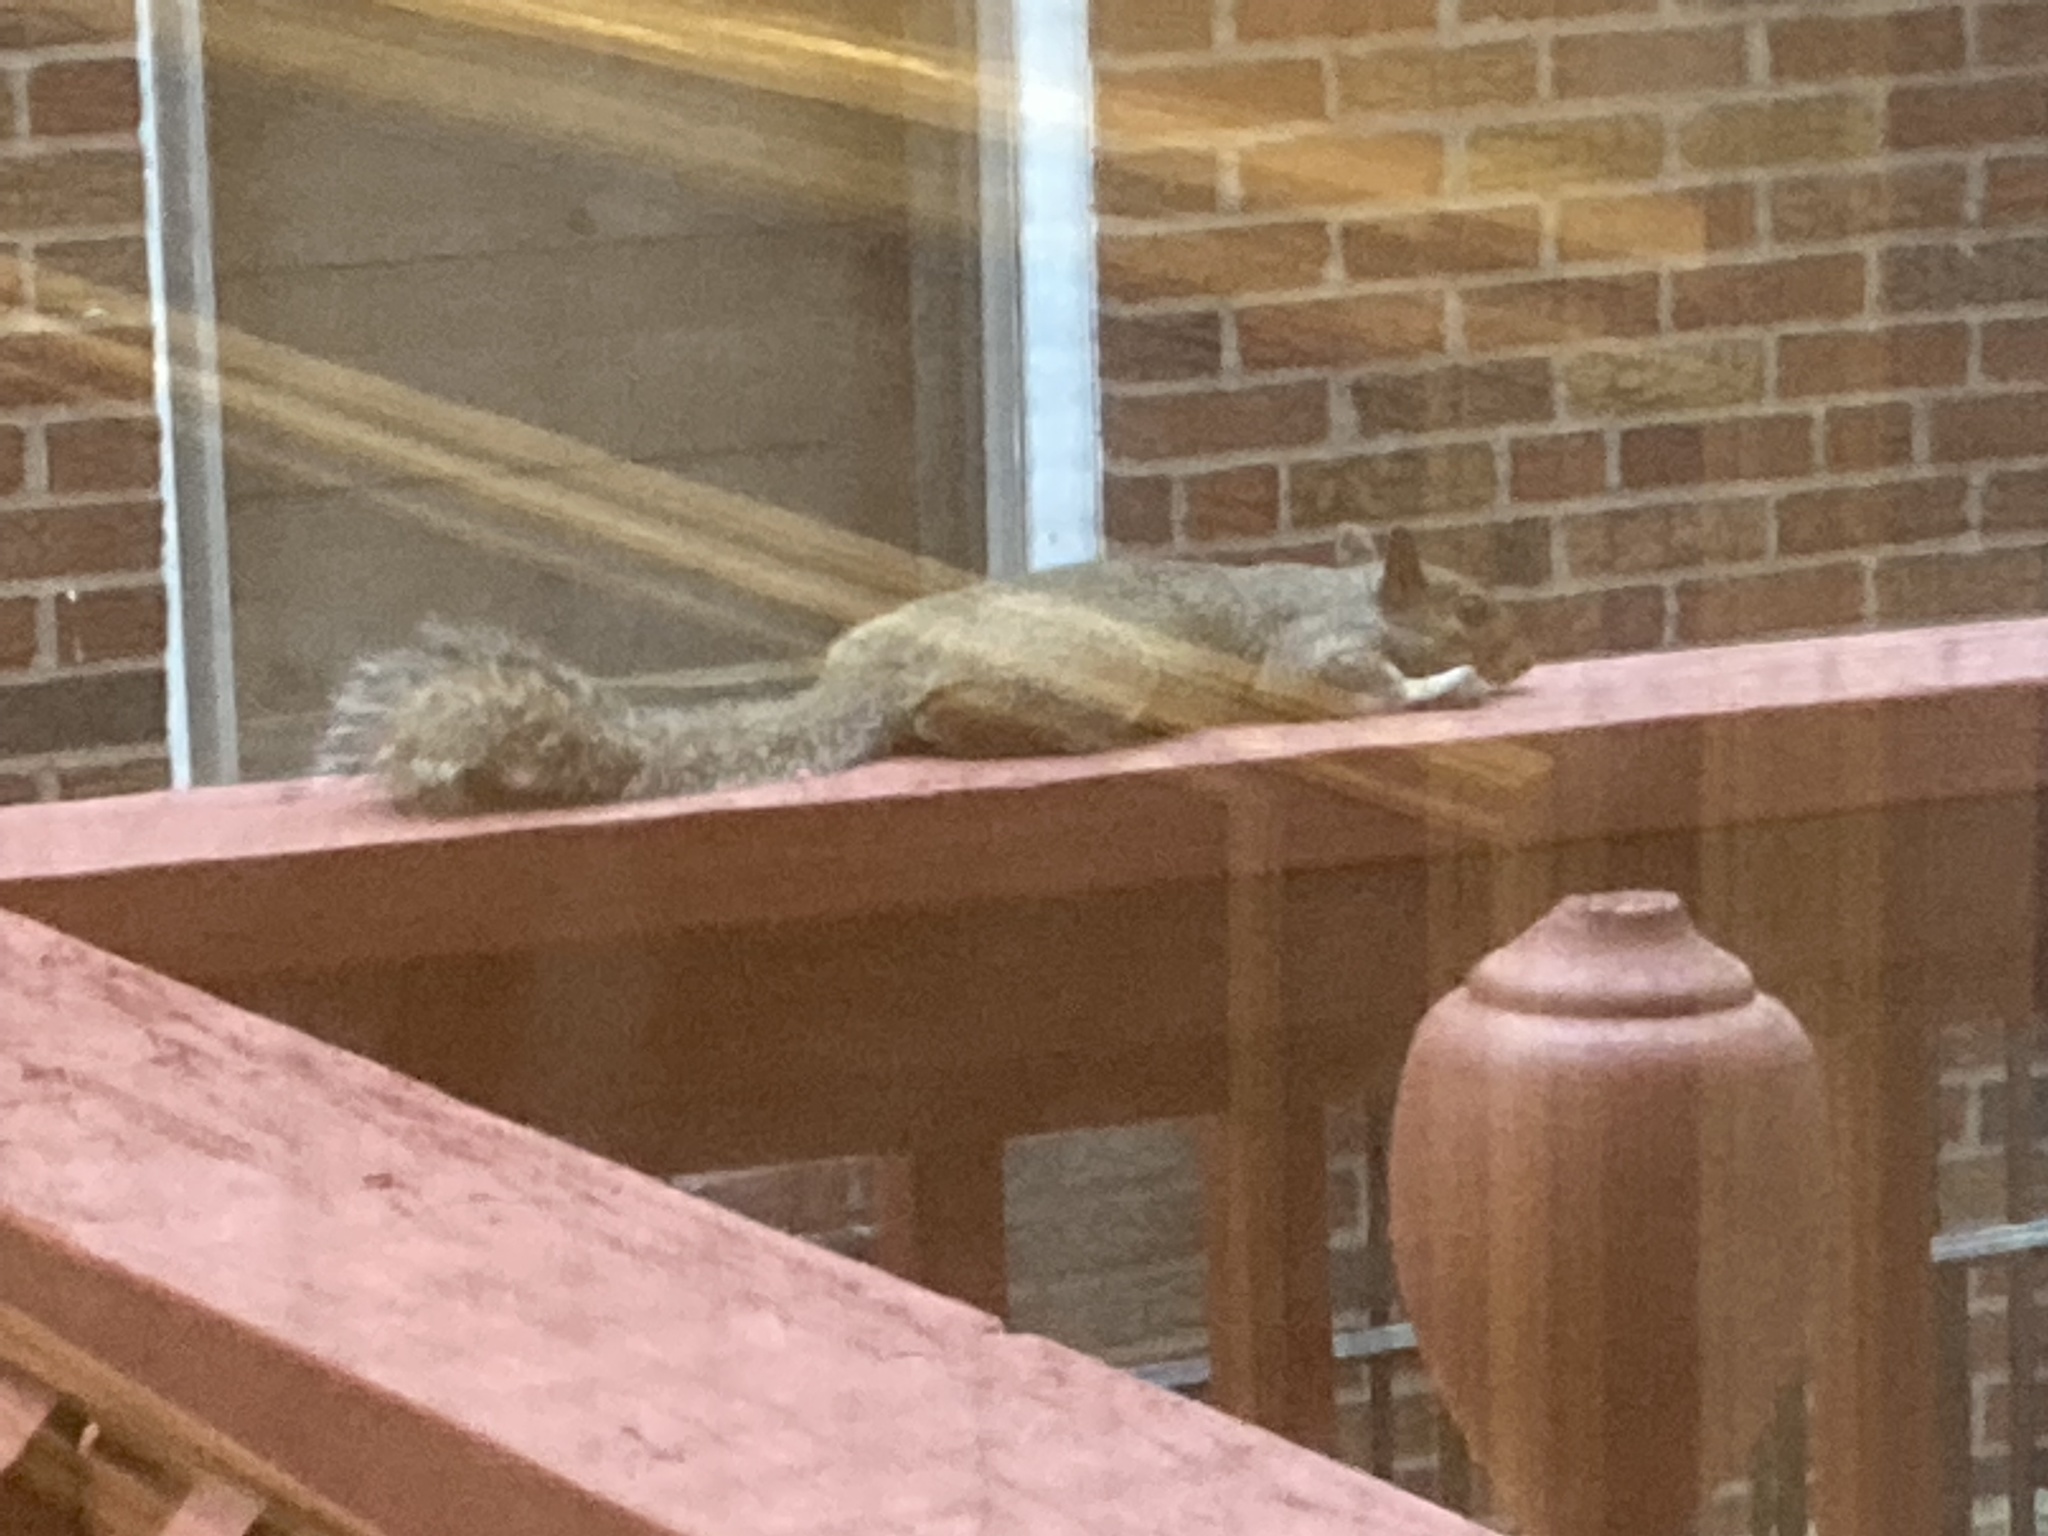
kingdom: Animalia
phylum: Chordata
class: Mammalia
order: Rodentia
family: Sciuridae
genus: Sciurus
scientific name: Sciurus carolinensis
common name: Eastern gray squirrel
